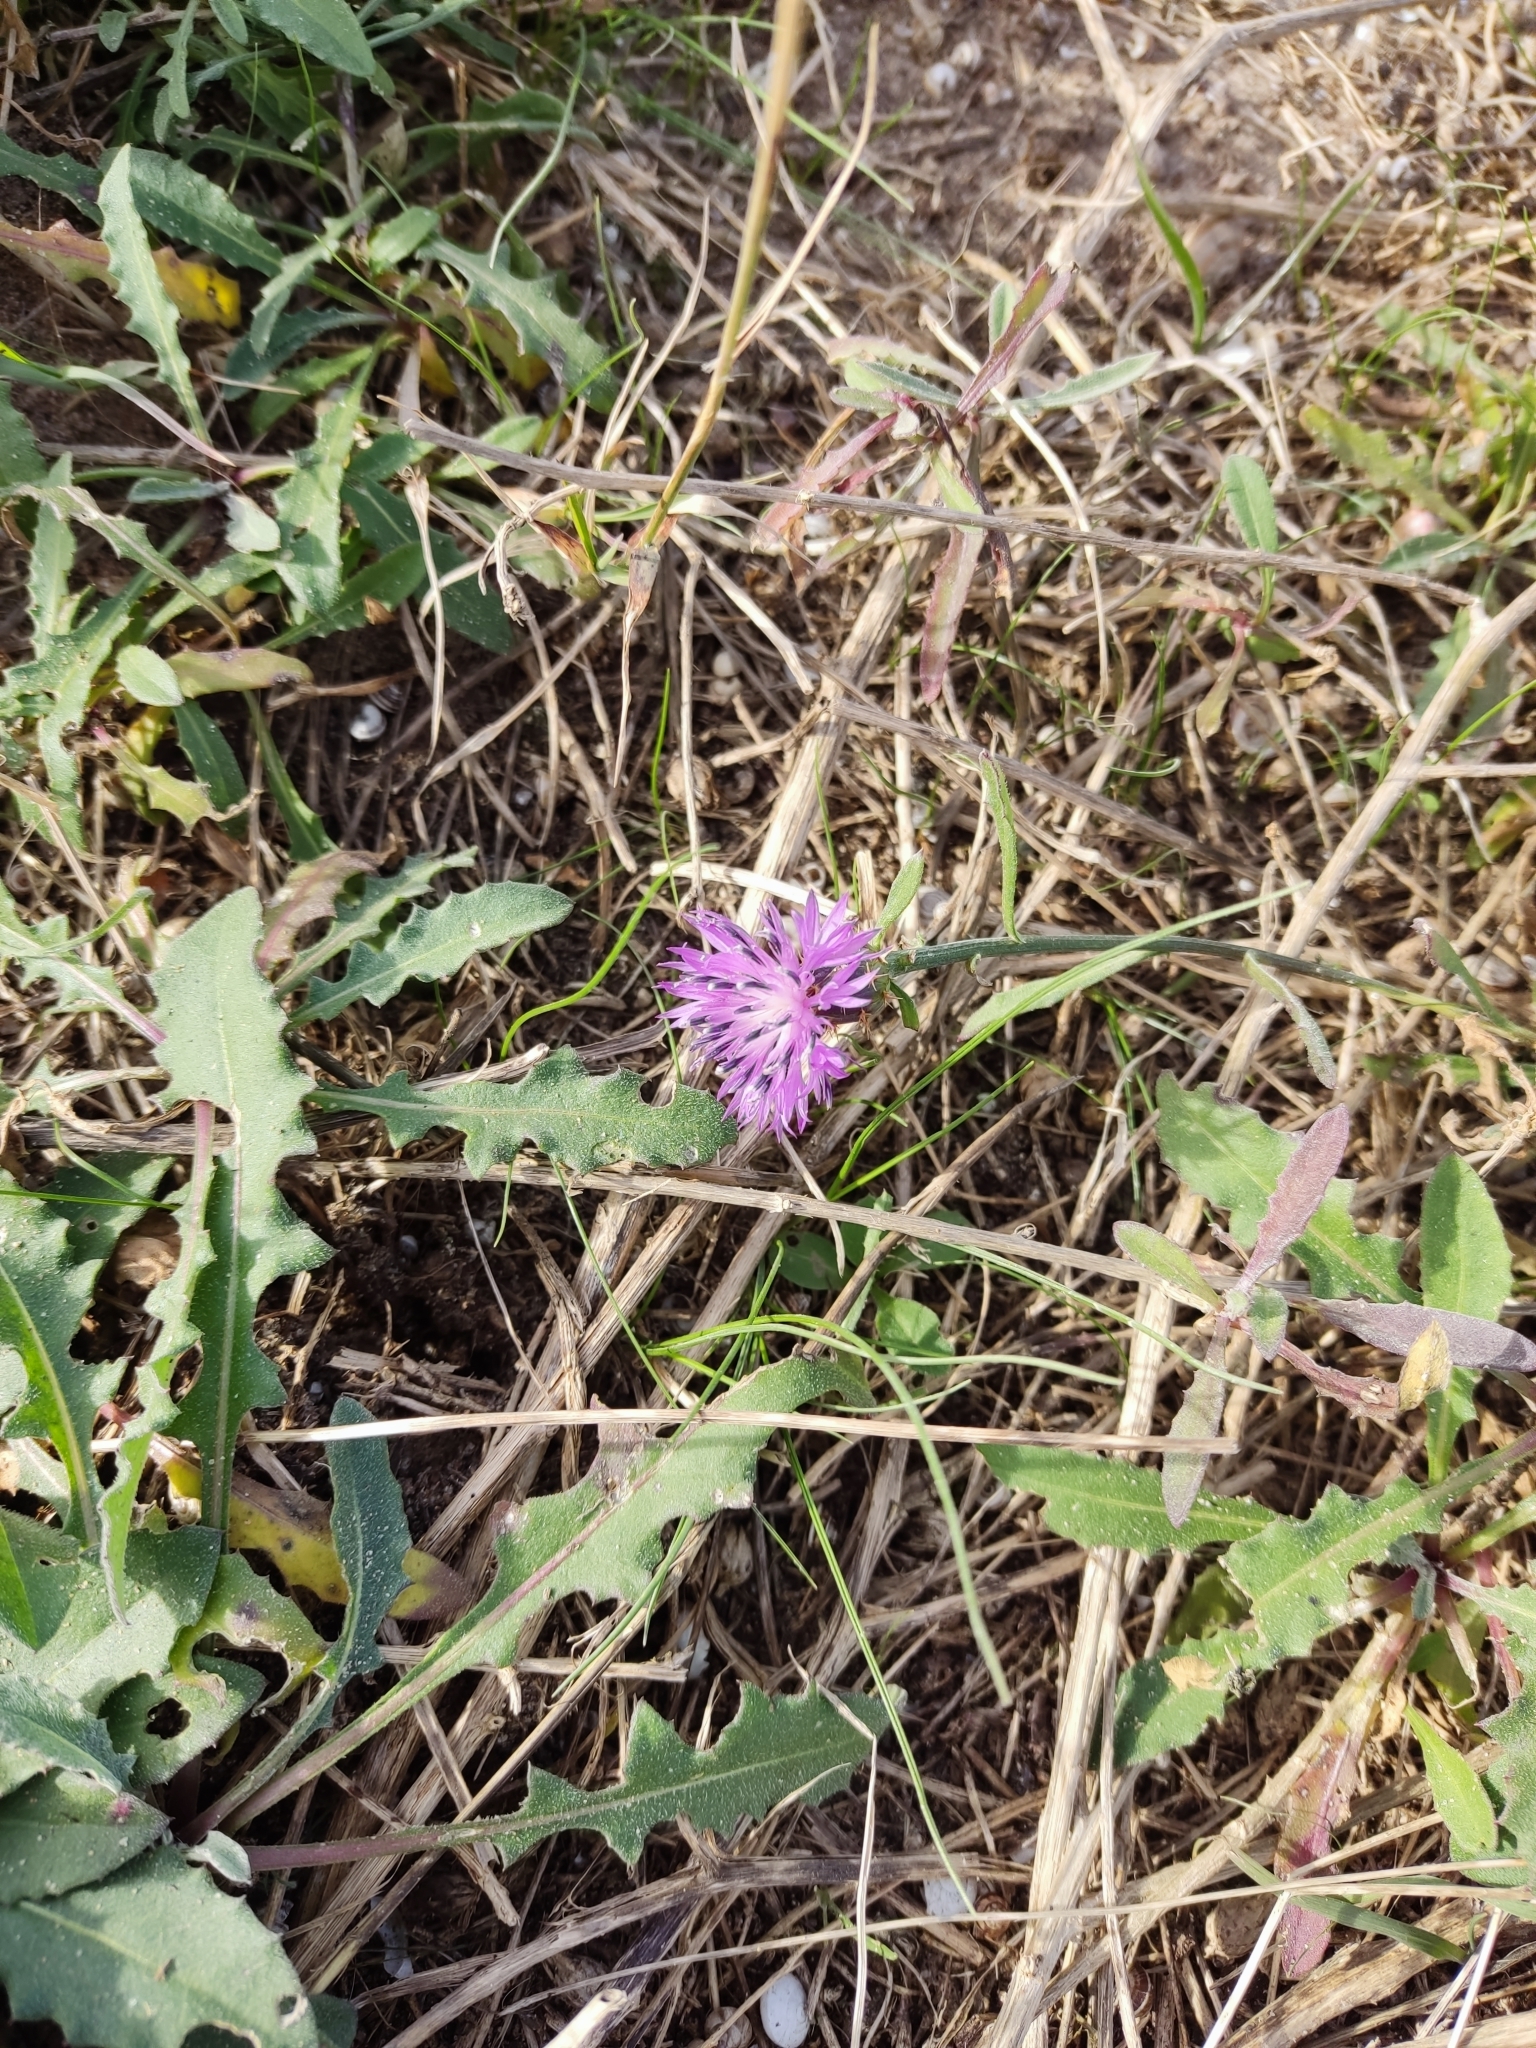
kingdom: Plantae
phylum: Tracheophyta
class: Magnoliopsida
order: Asterales
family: Asteraceae
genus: Centaurea
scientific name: Centaurea aspera
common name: Rough star-thistle
